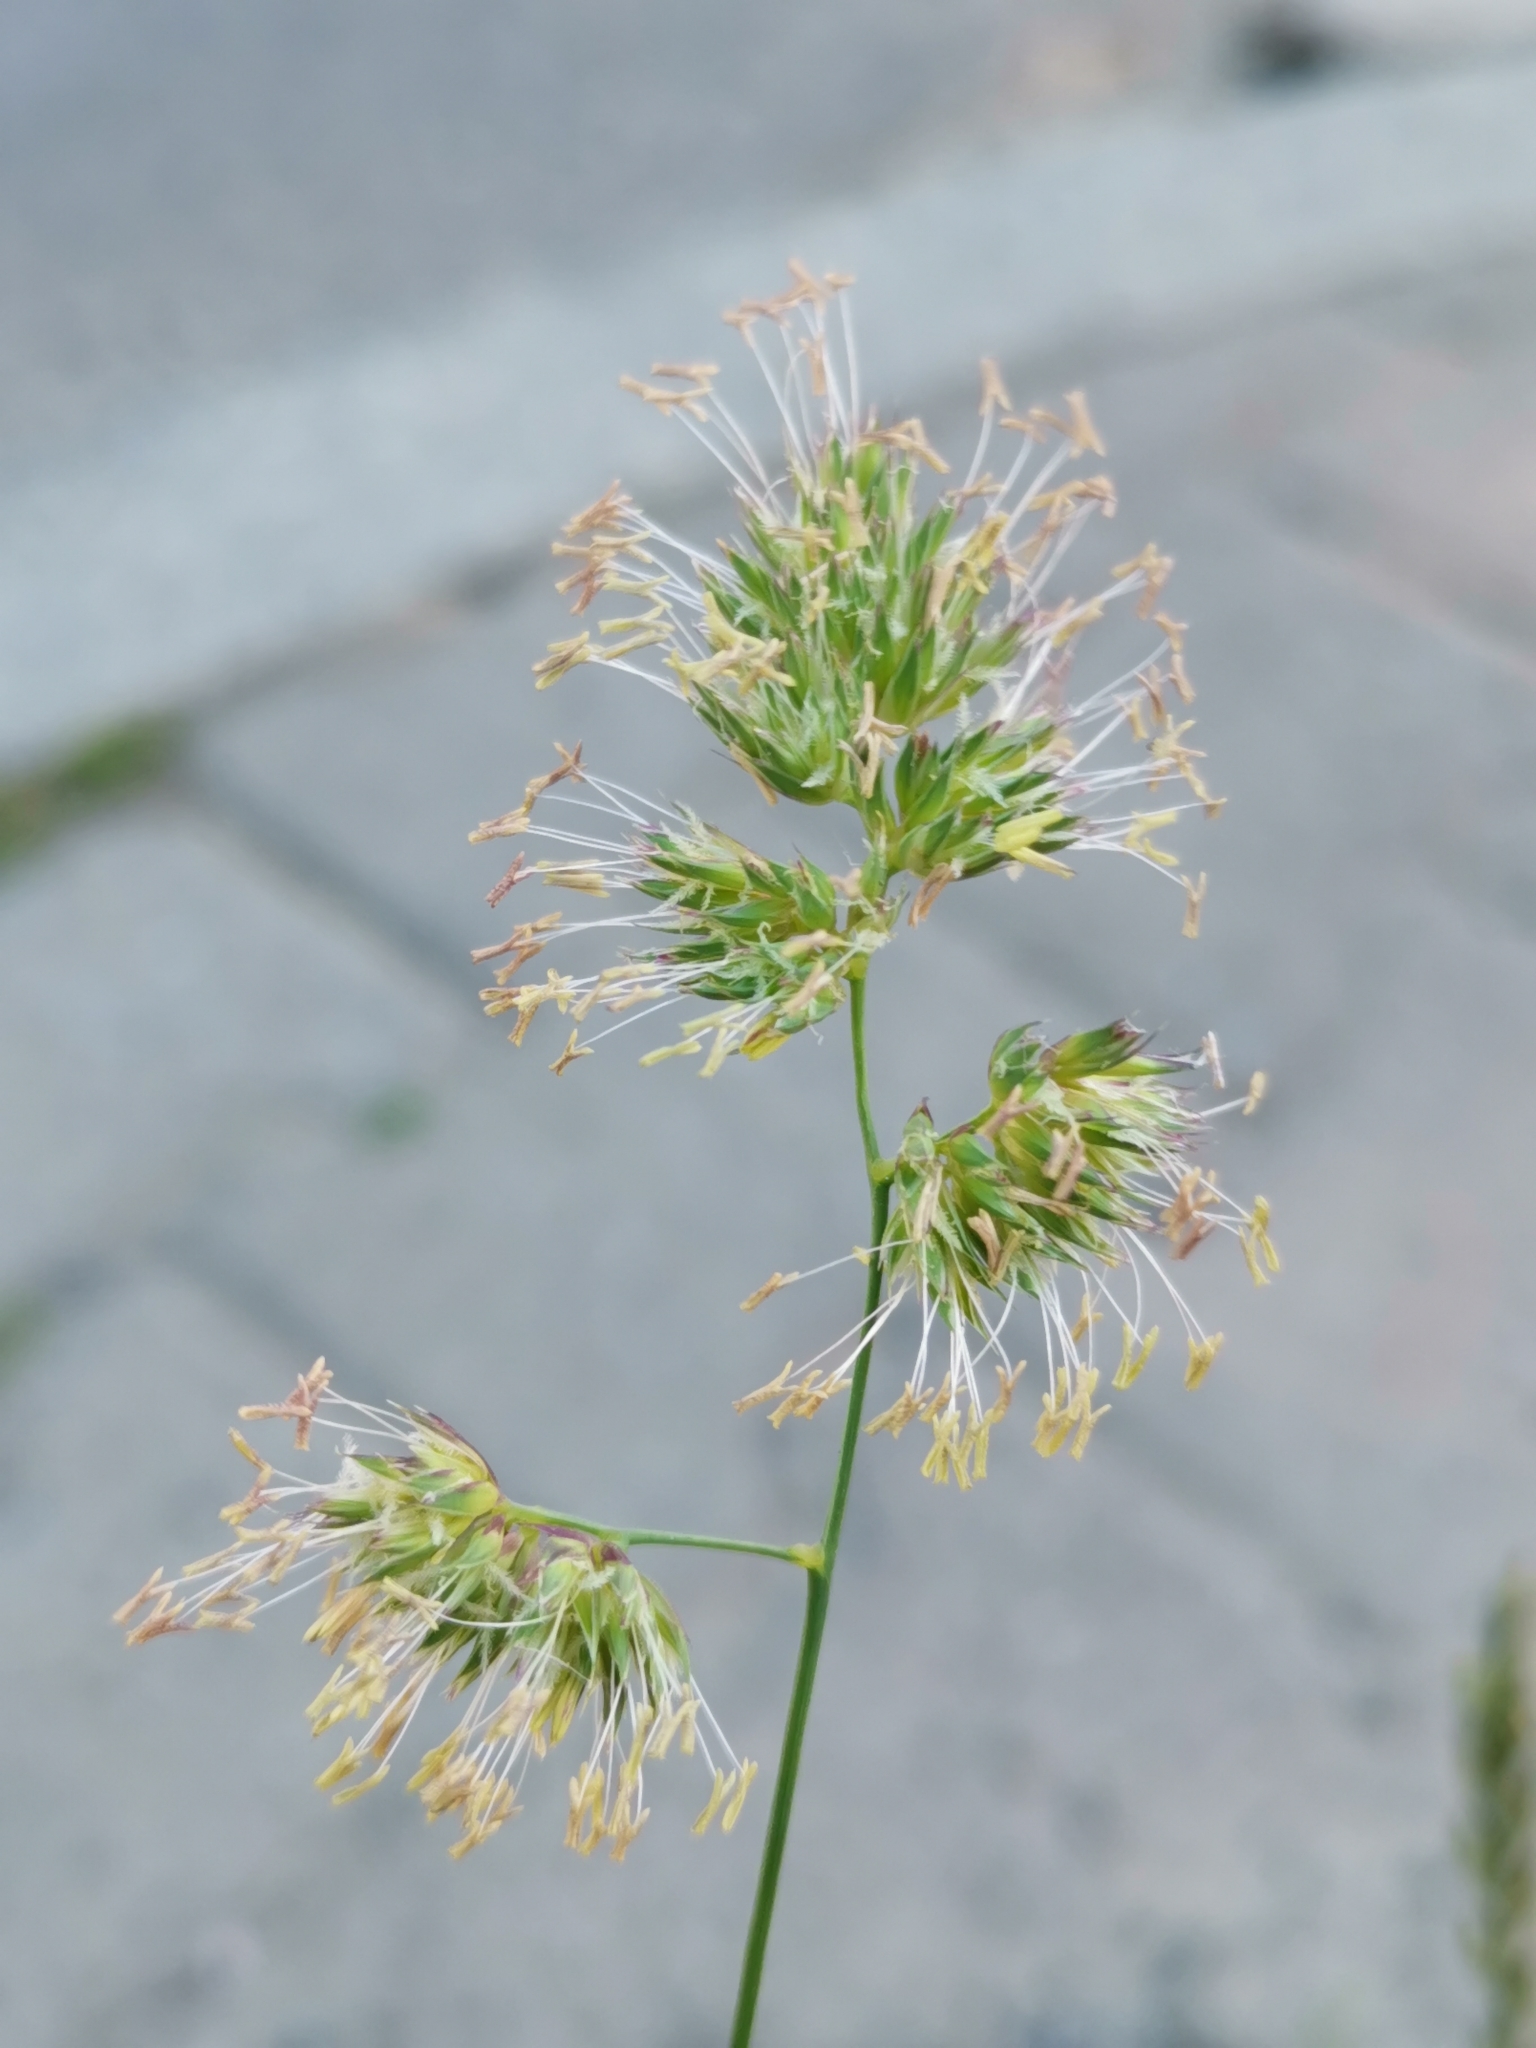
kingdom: Plantae
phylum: Tracheophyta
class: Liliopsida
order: Poales
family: Poaceae
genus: Dactylis
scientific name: Dactylis glomerata
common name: Orchardgrass
